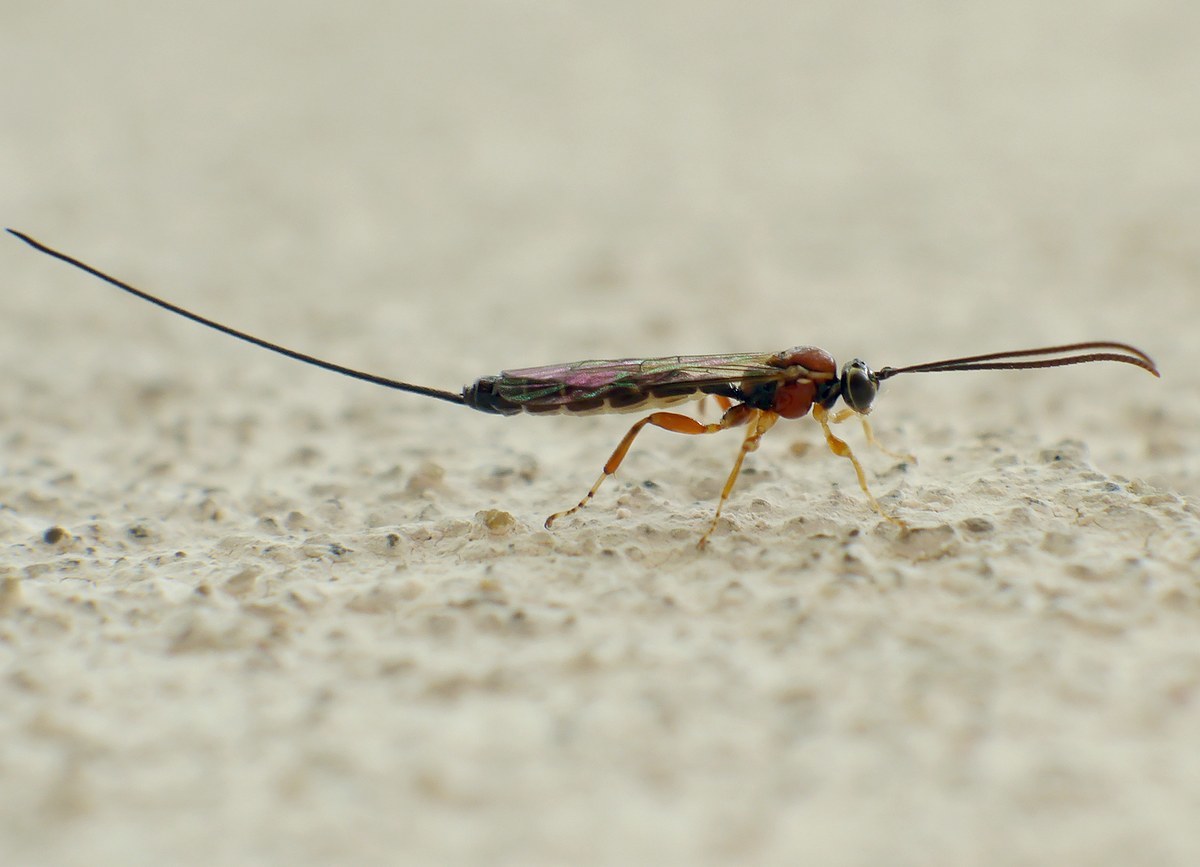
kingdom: Animalia
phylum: Arthropoda
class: Insecta
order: Hymenoptera
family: Ichneumonidae
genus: Perithous
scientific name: Perithous septemcinctorius
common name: Ichneumonid wasp
